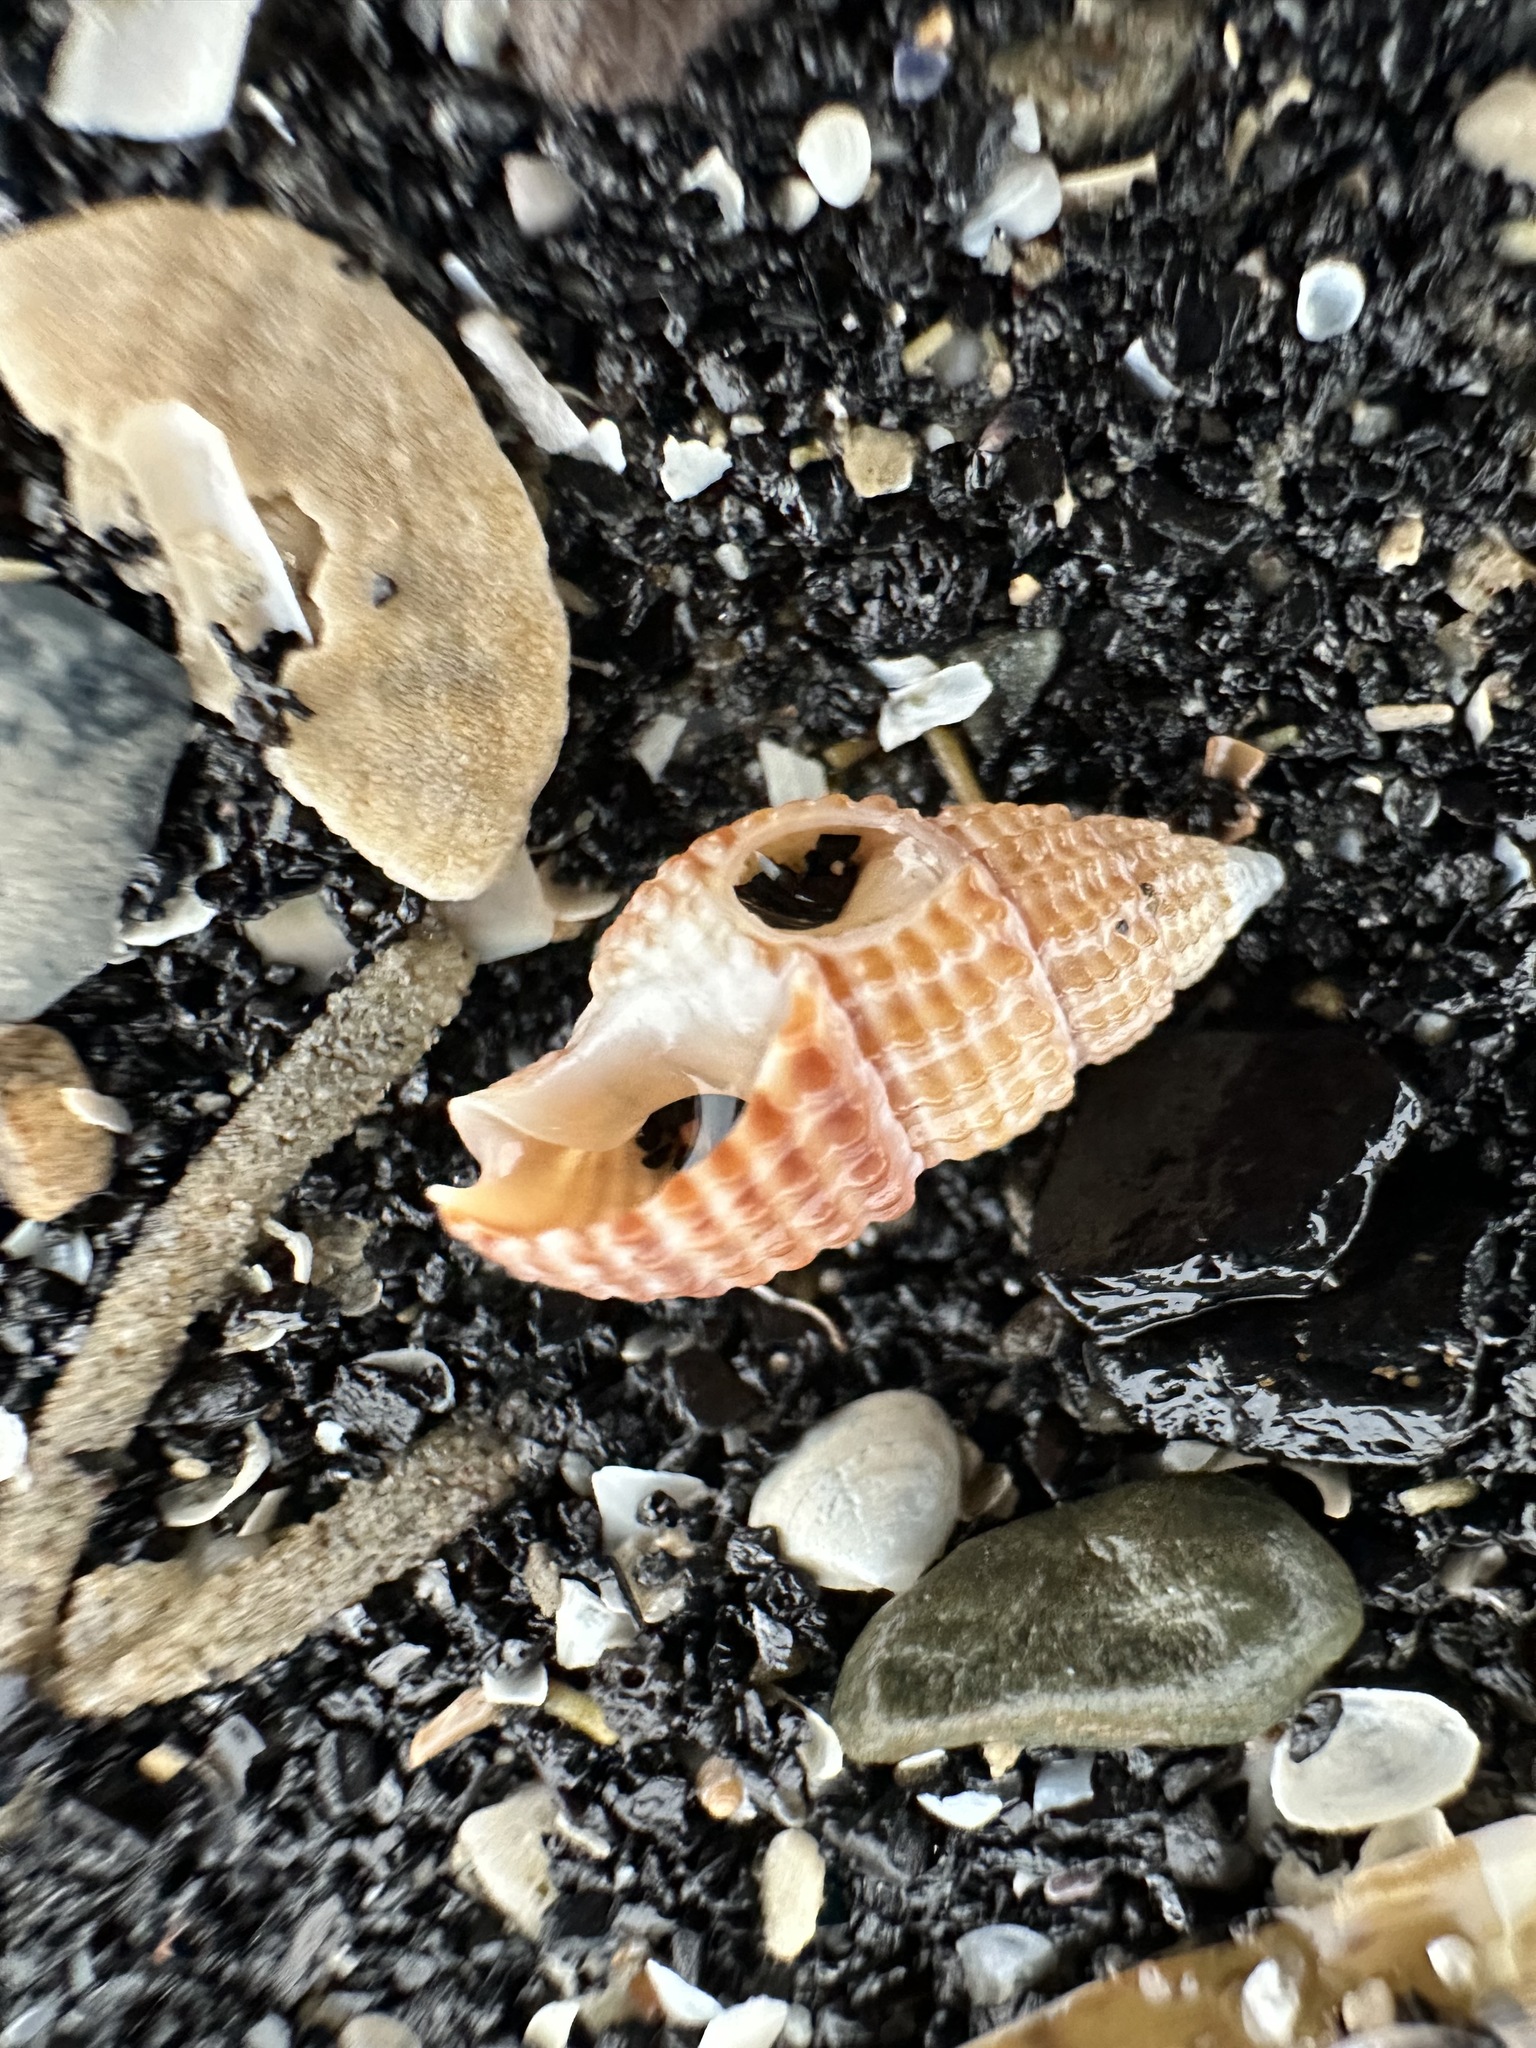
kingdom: Animalia
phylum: Mollusca
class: Gastropoda
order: Neogastropoda
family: Nassariidae
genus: Ilyanassa
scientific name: Ilyanassa trivittata
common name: Three-line mudsnail
